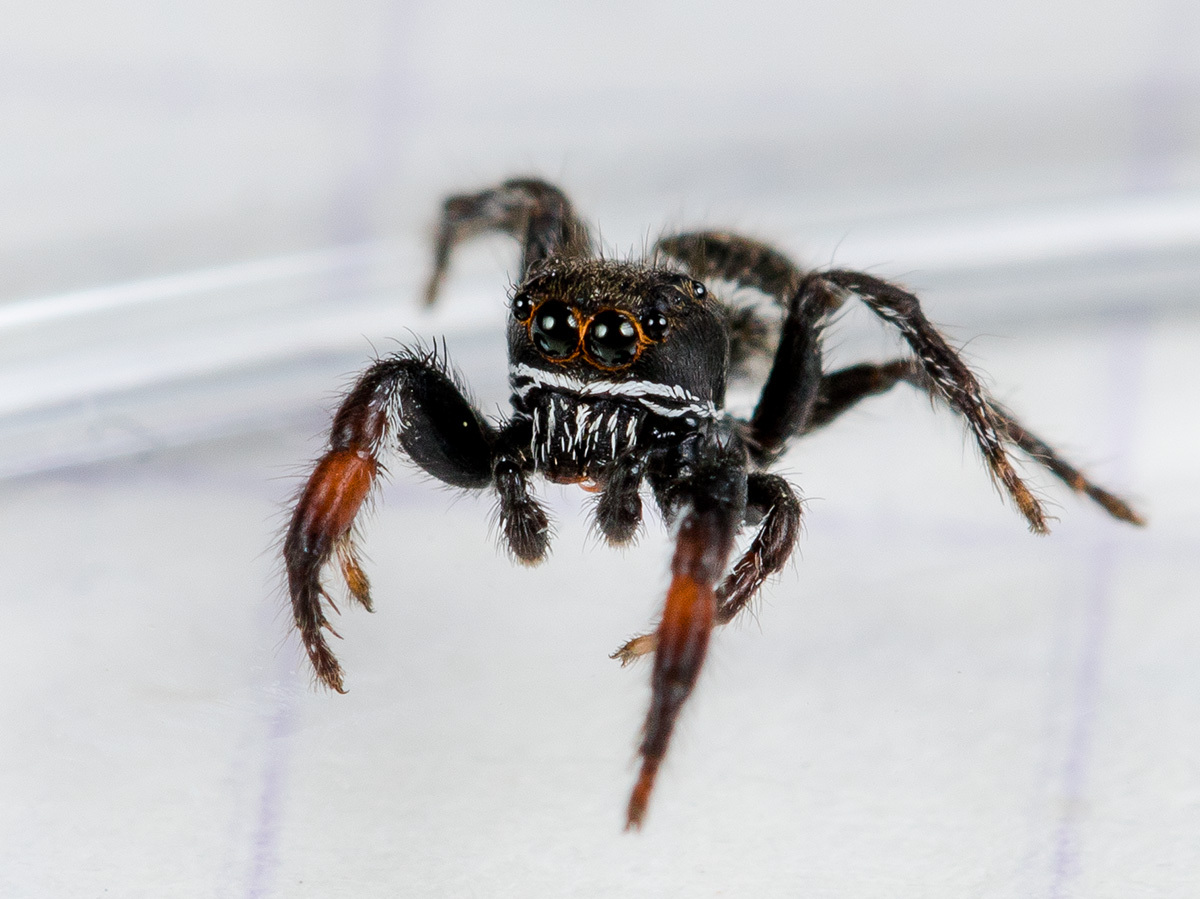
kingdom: Animalia
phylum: Arthropoda
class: Arachnida
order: Araneae
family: Salticidae
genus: Pellenes
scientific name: Pellenes allegrii
